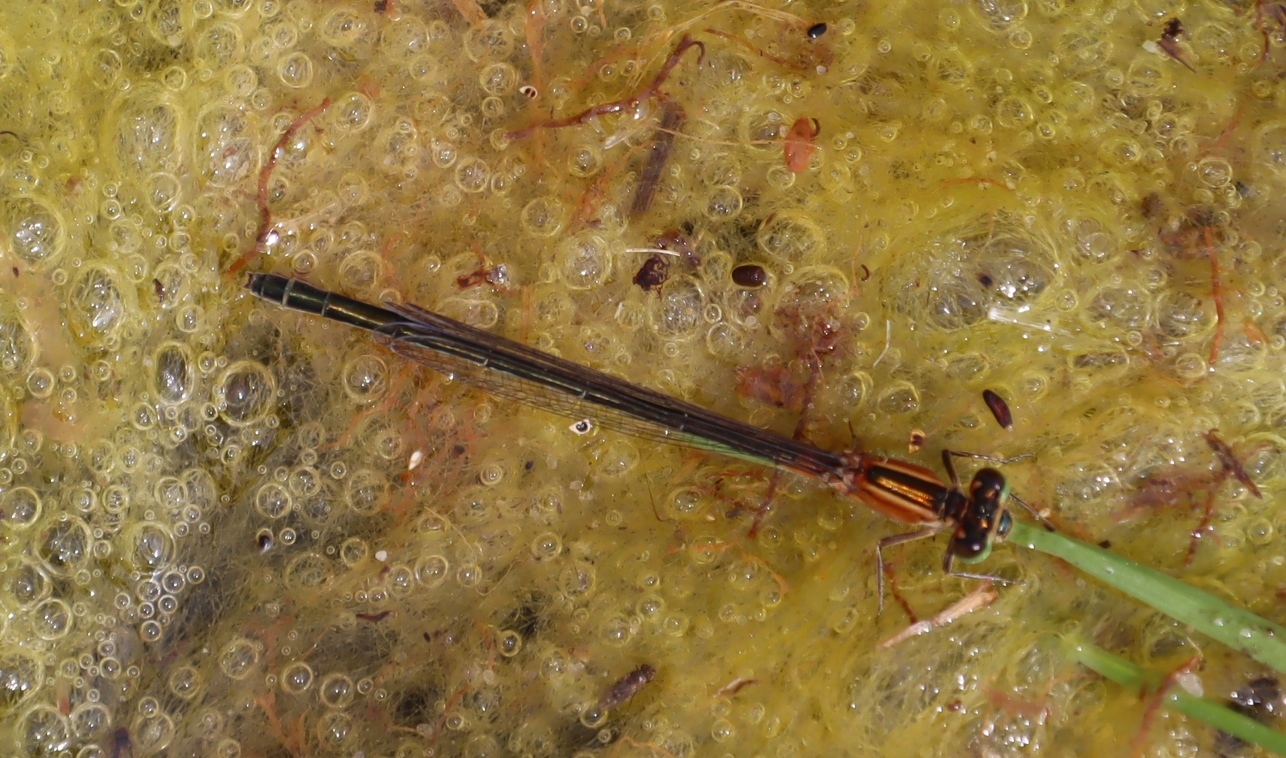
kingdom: Animalia
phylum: Arthropoda
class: Insecta
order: Odonata
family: Coenagrionidae
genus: Ischnura
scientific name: Ischnura senegalensis
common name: Tropical bluetail
